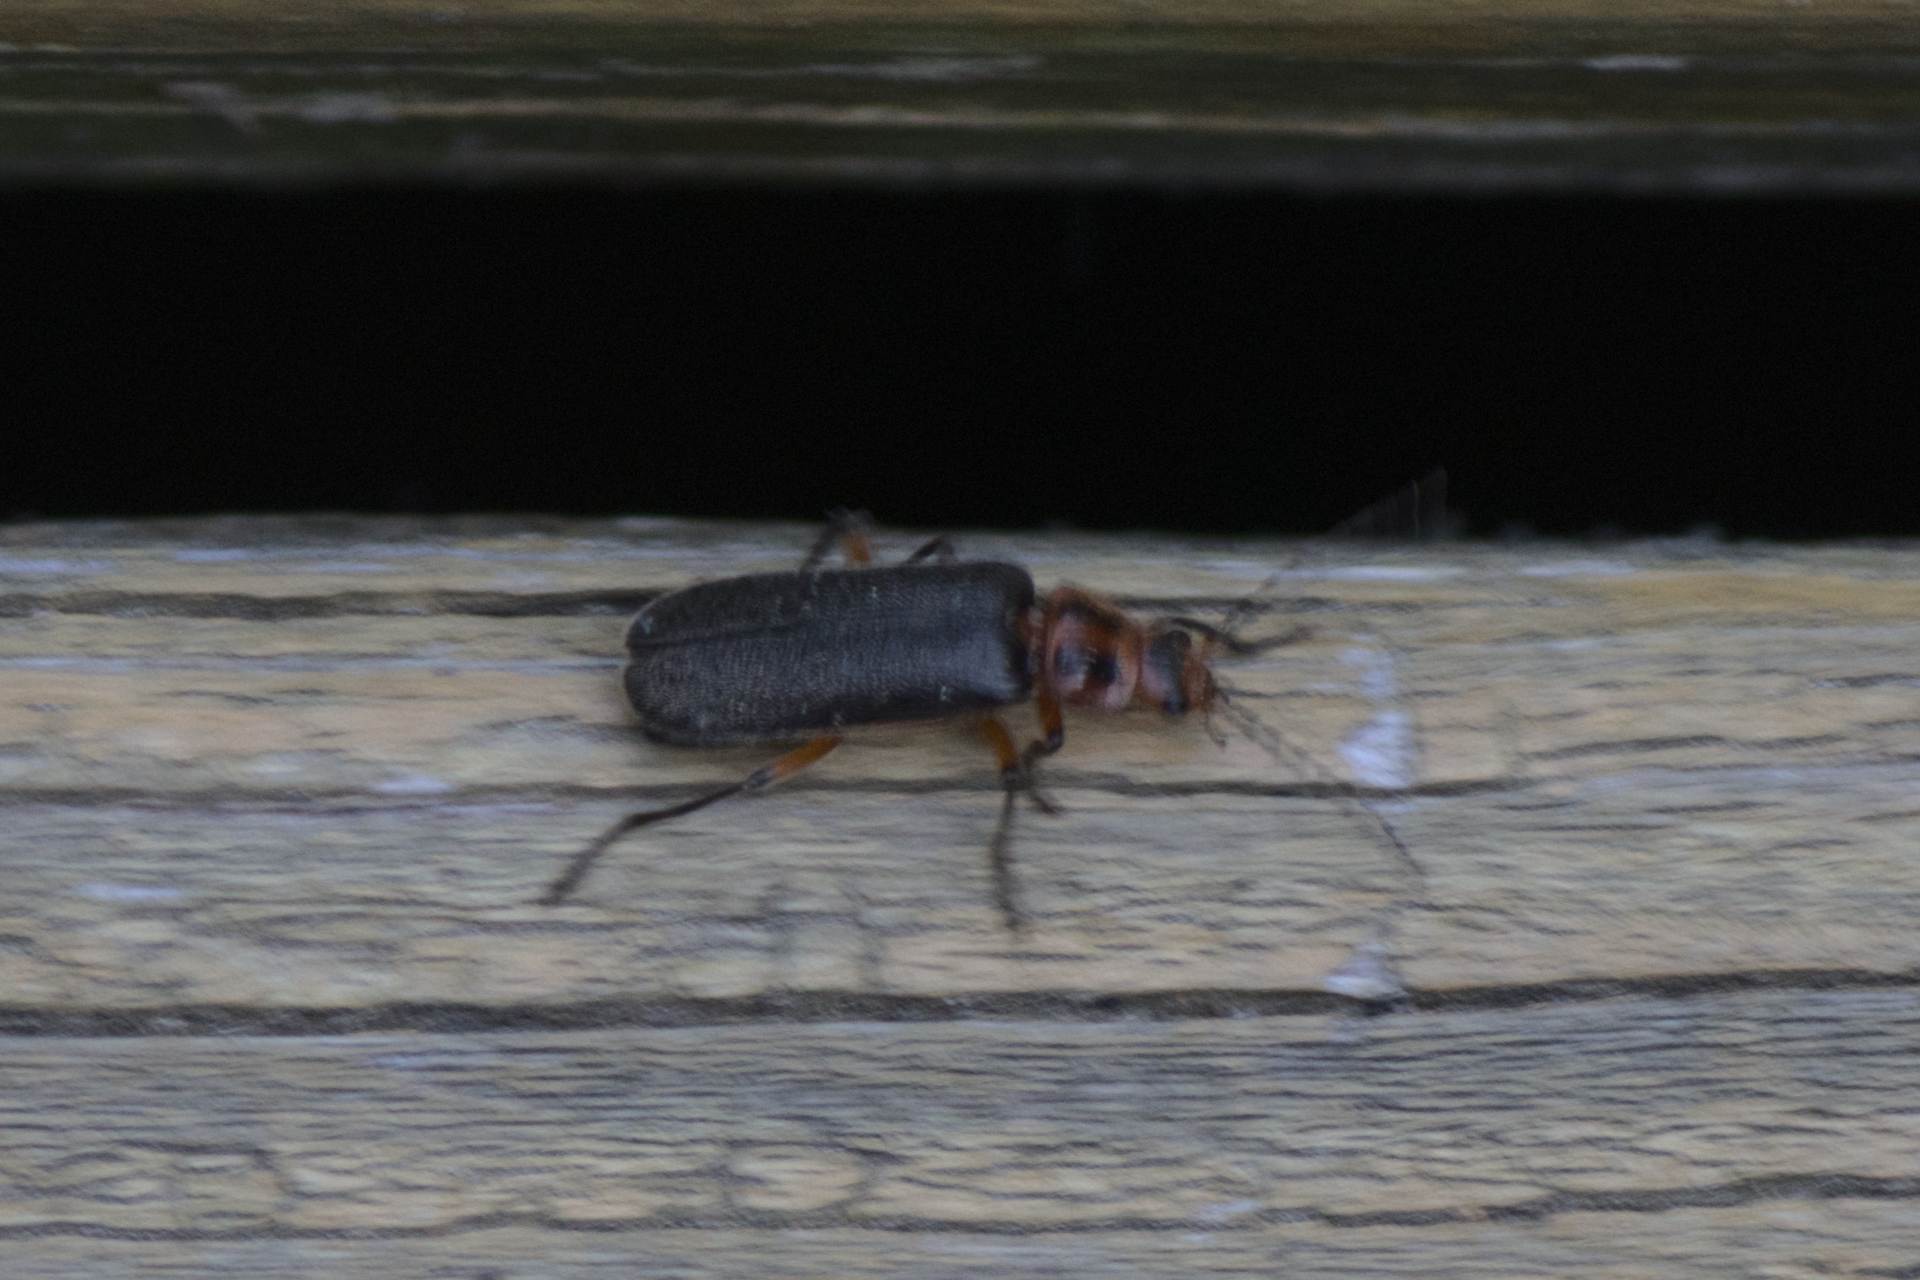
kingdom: Animalia
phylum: Arthropoda
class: Insecta
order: Coleoptera
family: Cantharidae
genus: Atalantycha
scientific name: Atalantycha bilineata
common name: Two-lined leatherwing
